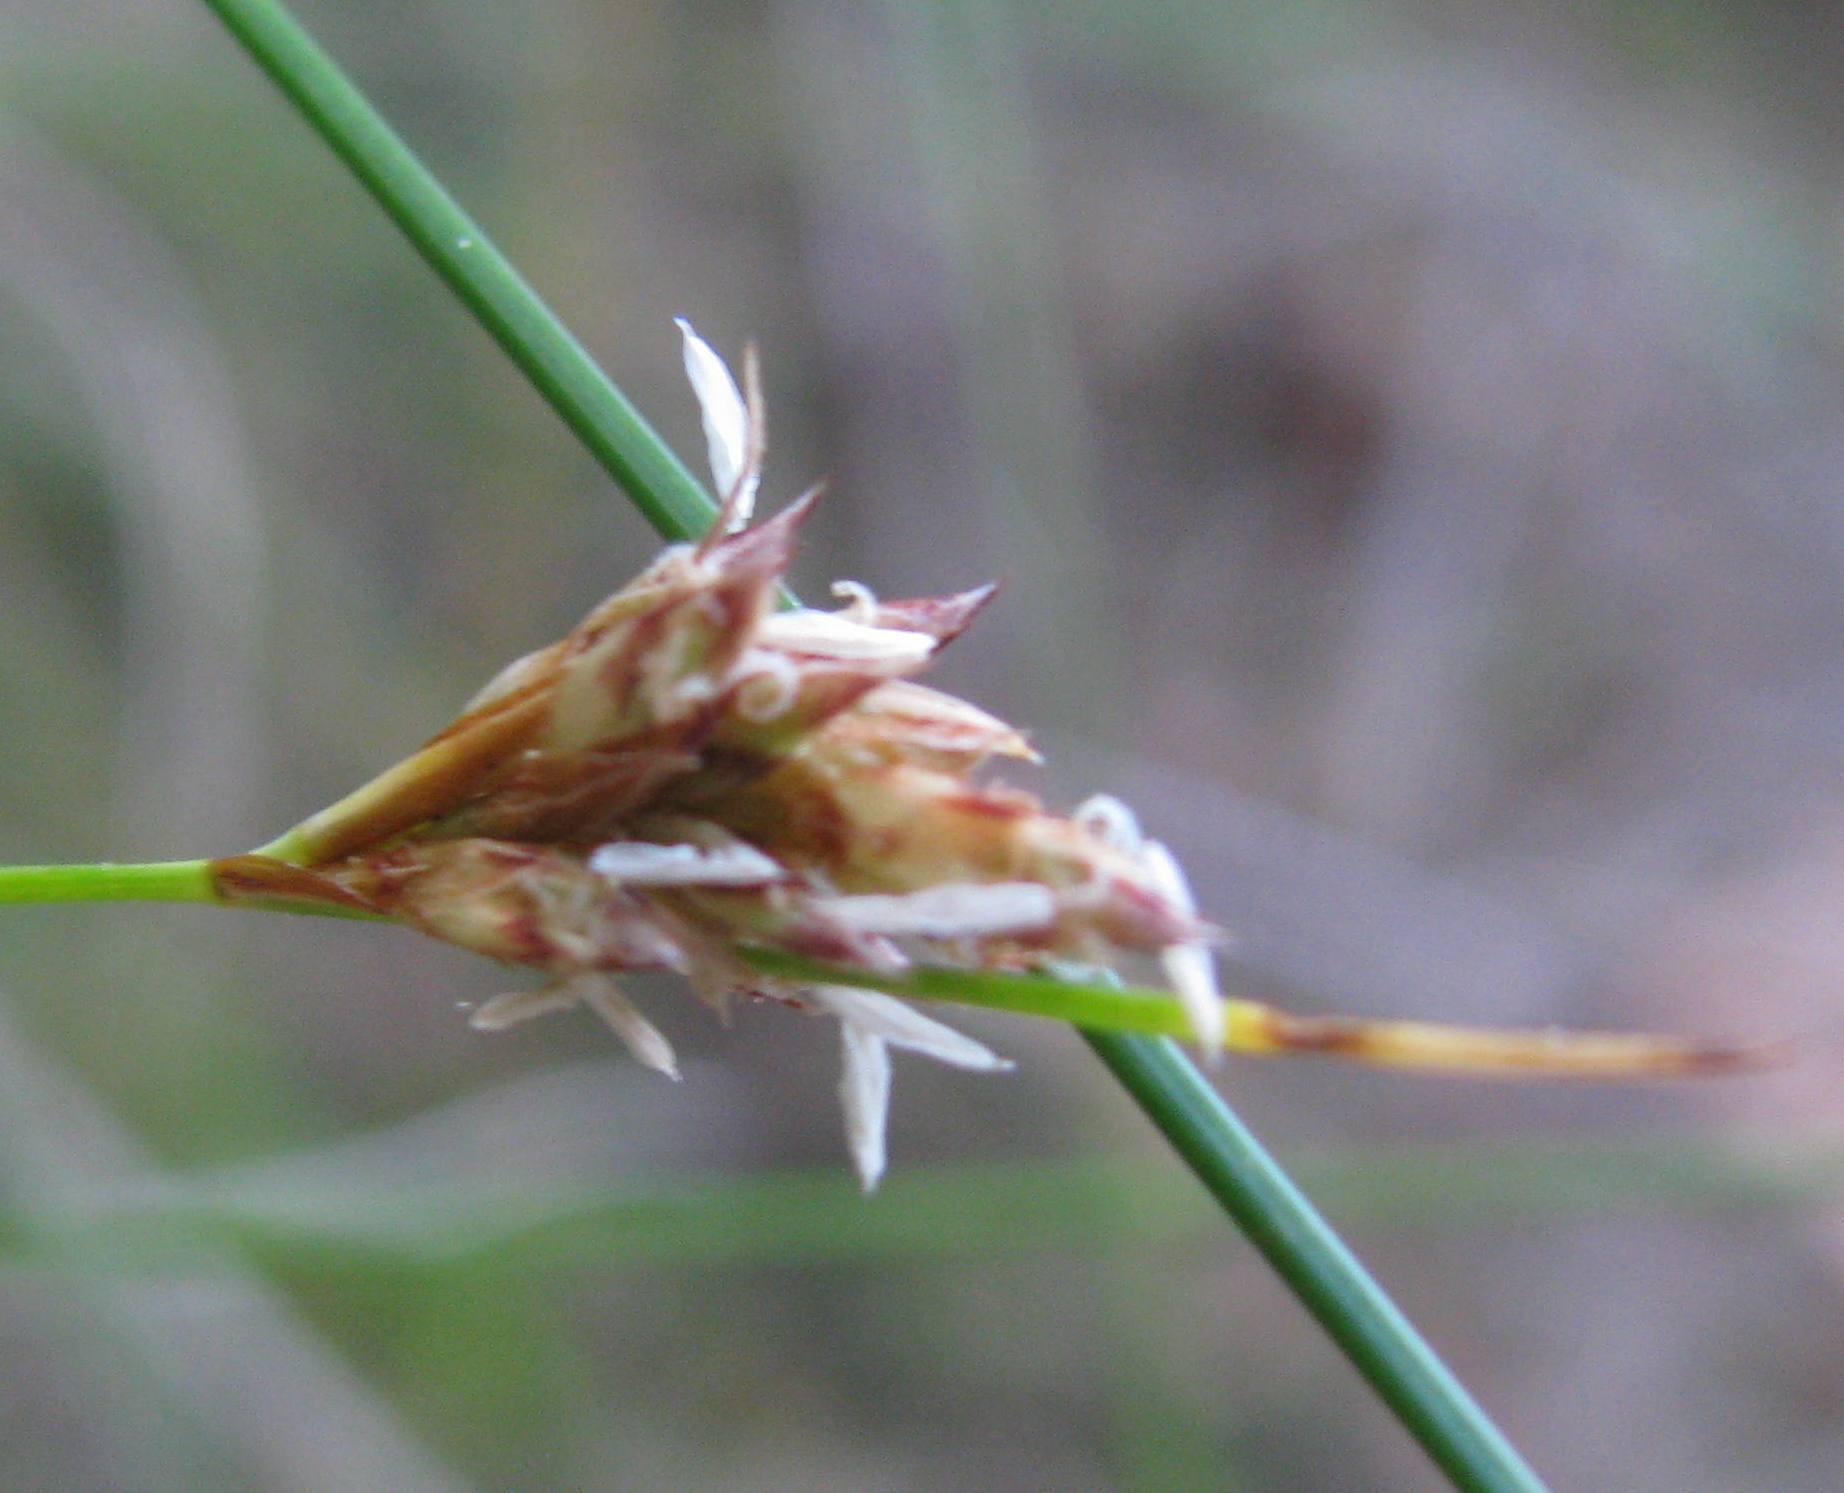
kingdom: Plantae
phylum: Tracheophyta
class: Liliopsida
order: Poales
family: Cyperaceae
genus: Ficinia
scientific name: Ficinia fascicularis
